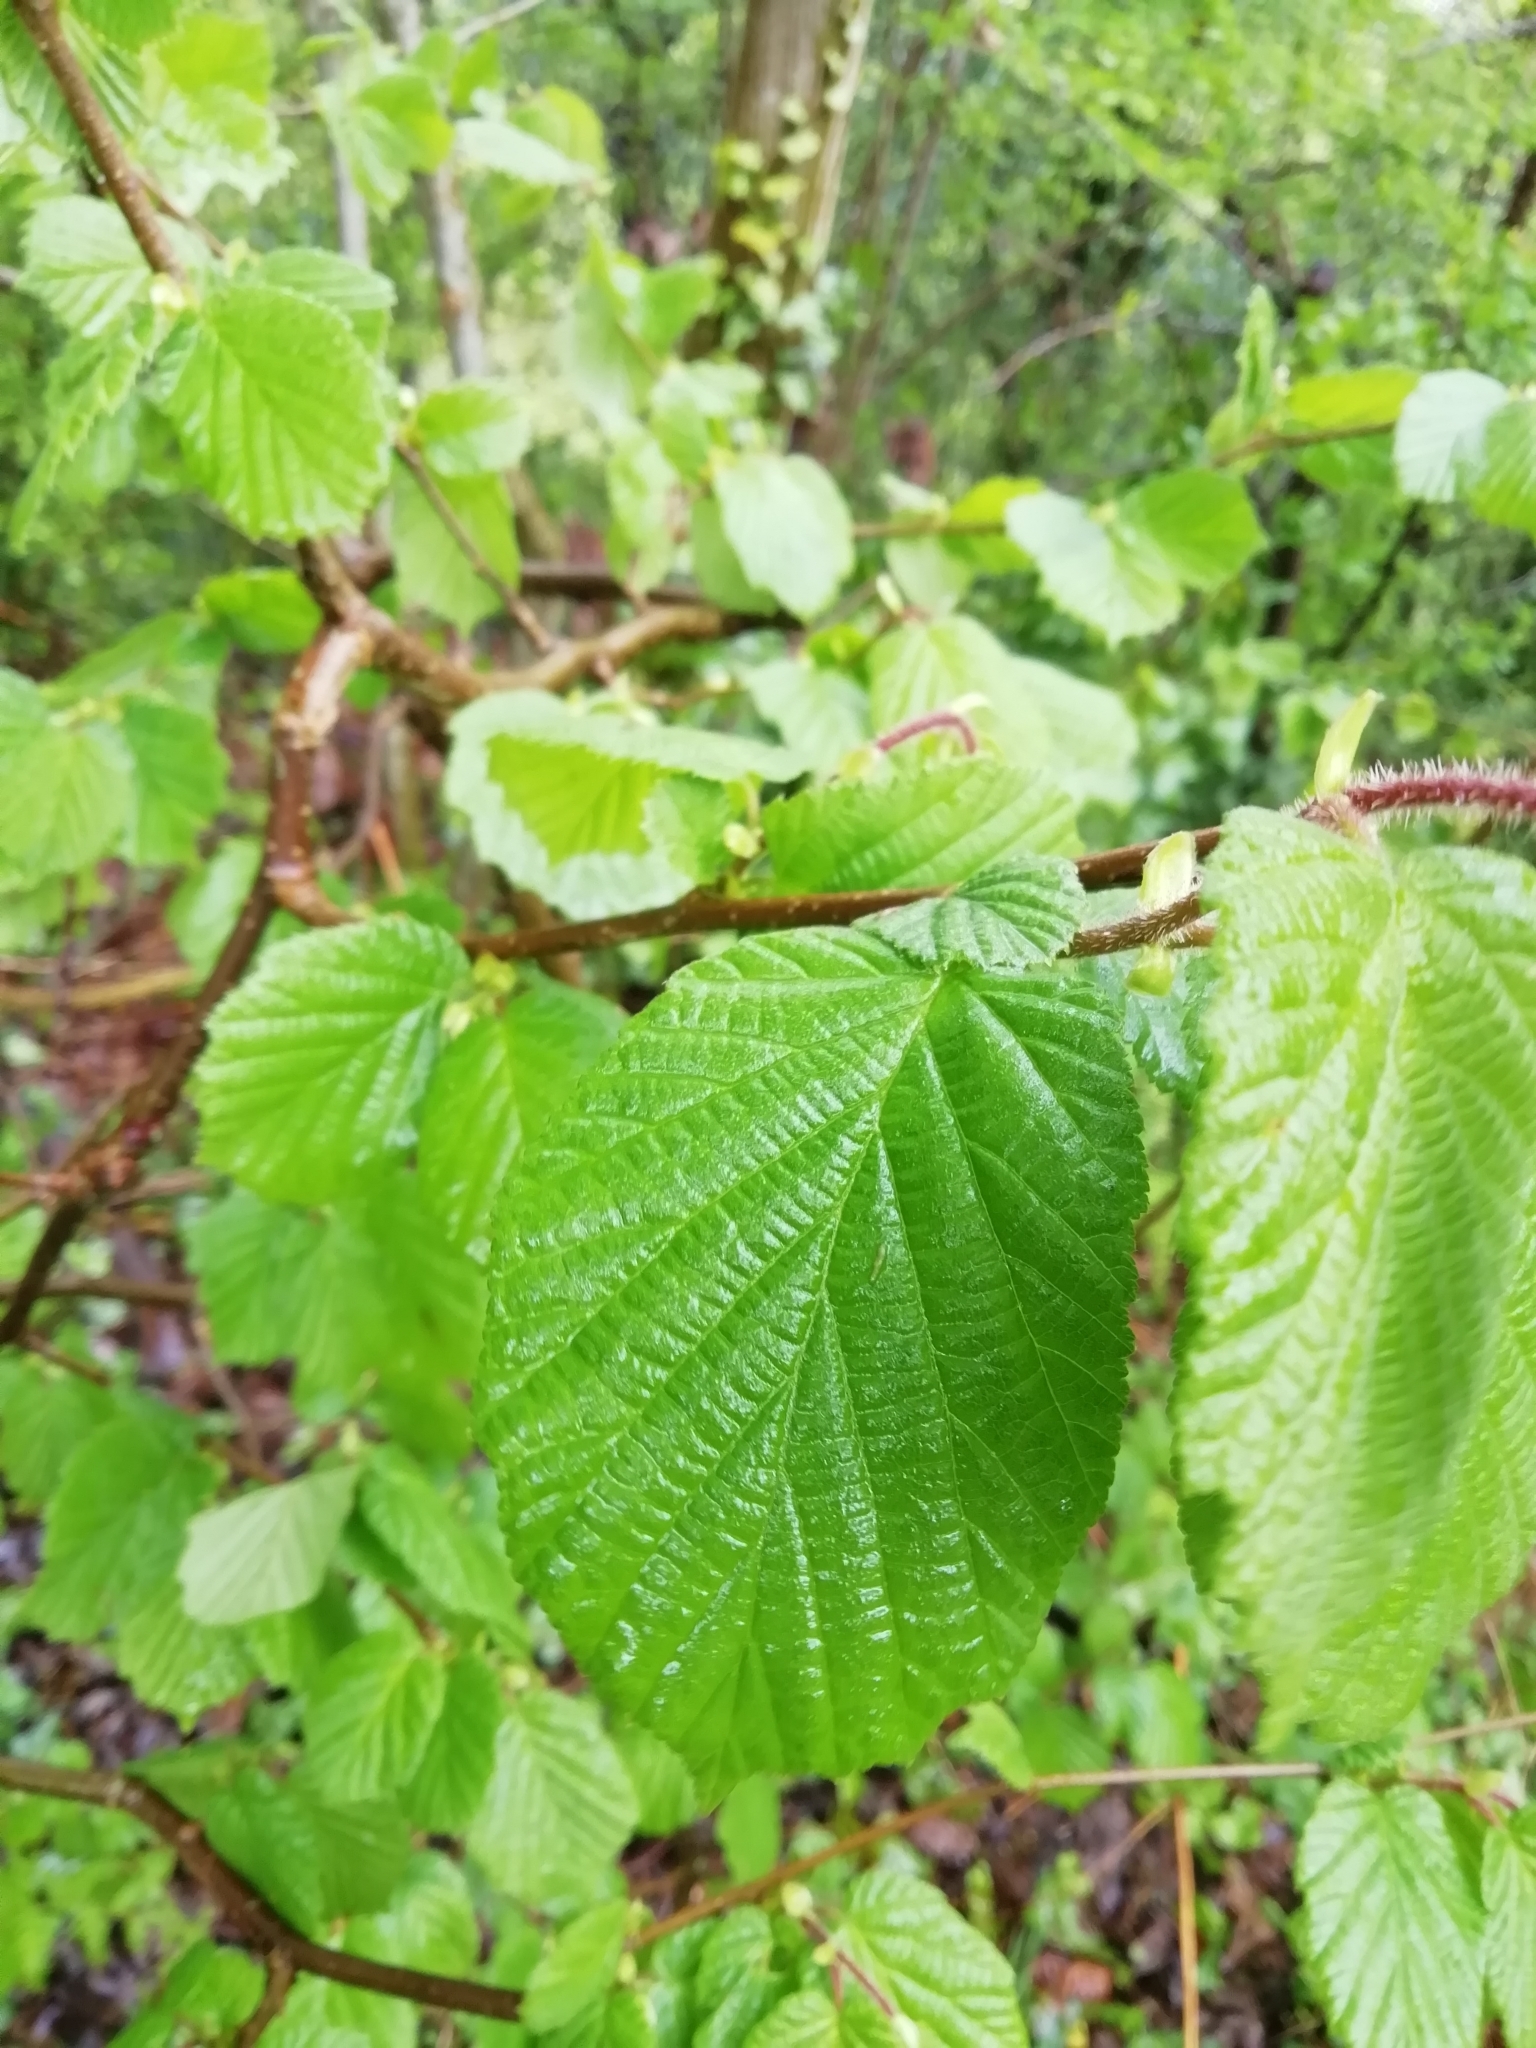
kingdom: Plantae
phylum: Tracheophyta
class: Magnoliopsida
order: Fagales
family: Betulaceae
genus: Corylus
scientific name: Corylus avellana
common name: European hazel
